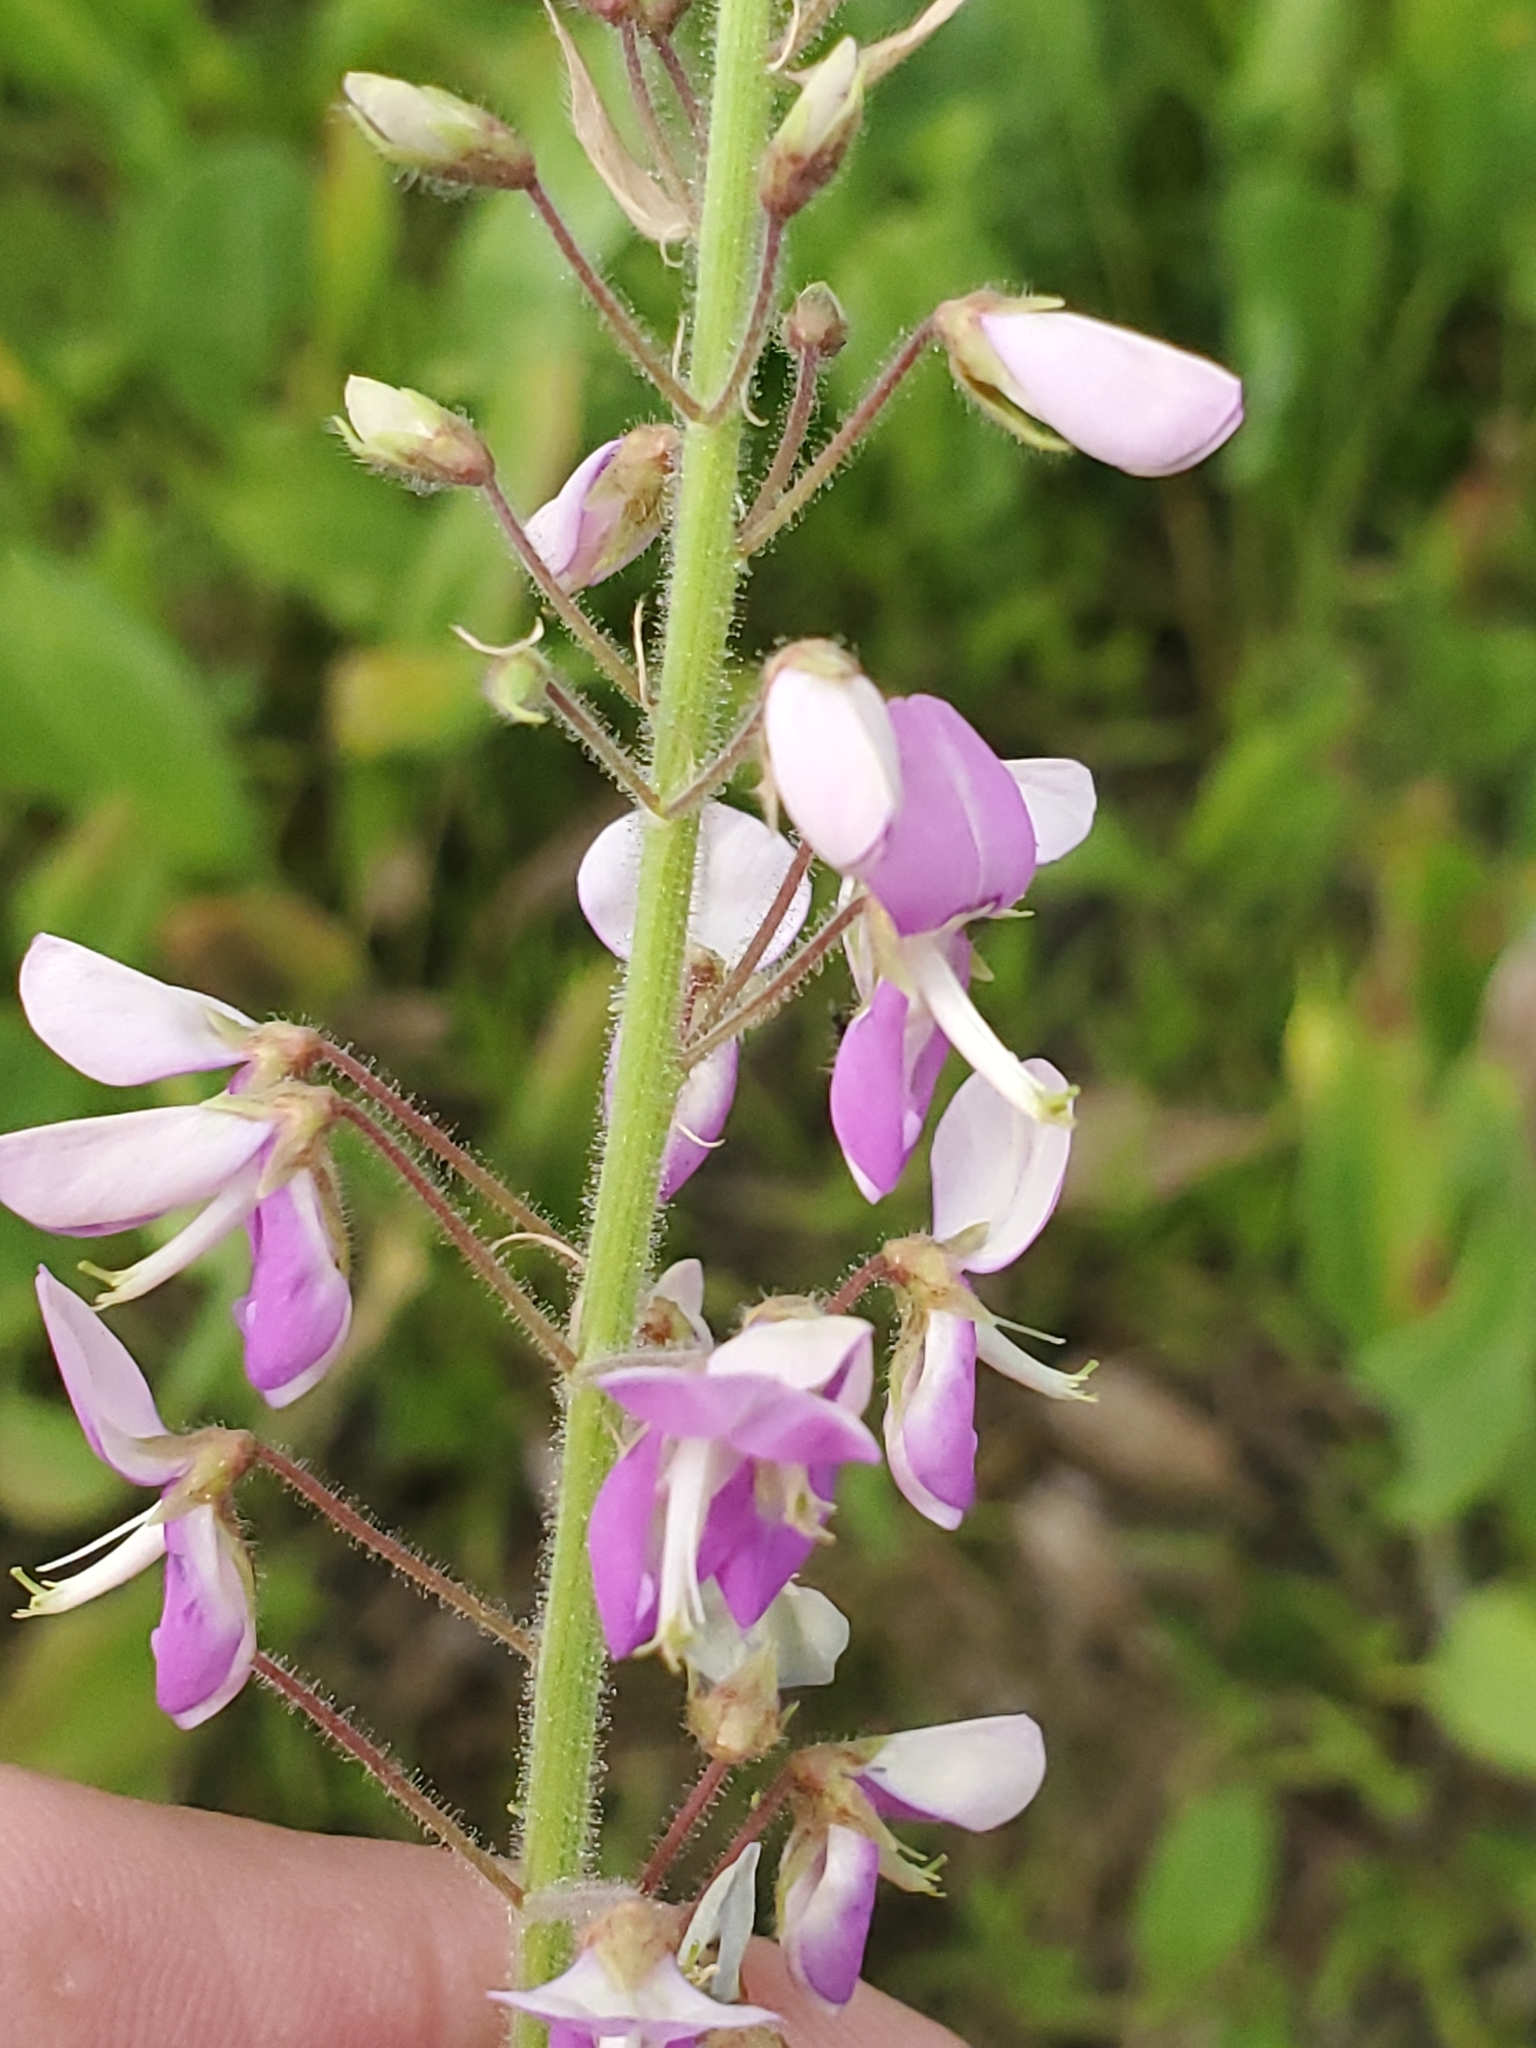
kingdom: Plantae
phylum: Tracheophyta
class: Magnoliopsida
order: Fabales
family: Fabaceae
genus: Desmodium
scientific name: Desmodium illinoense
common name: Illinois tick-clover
